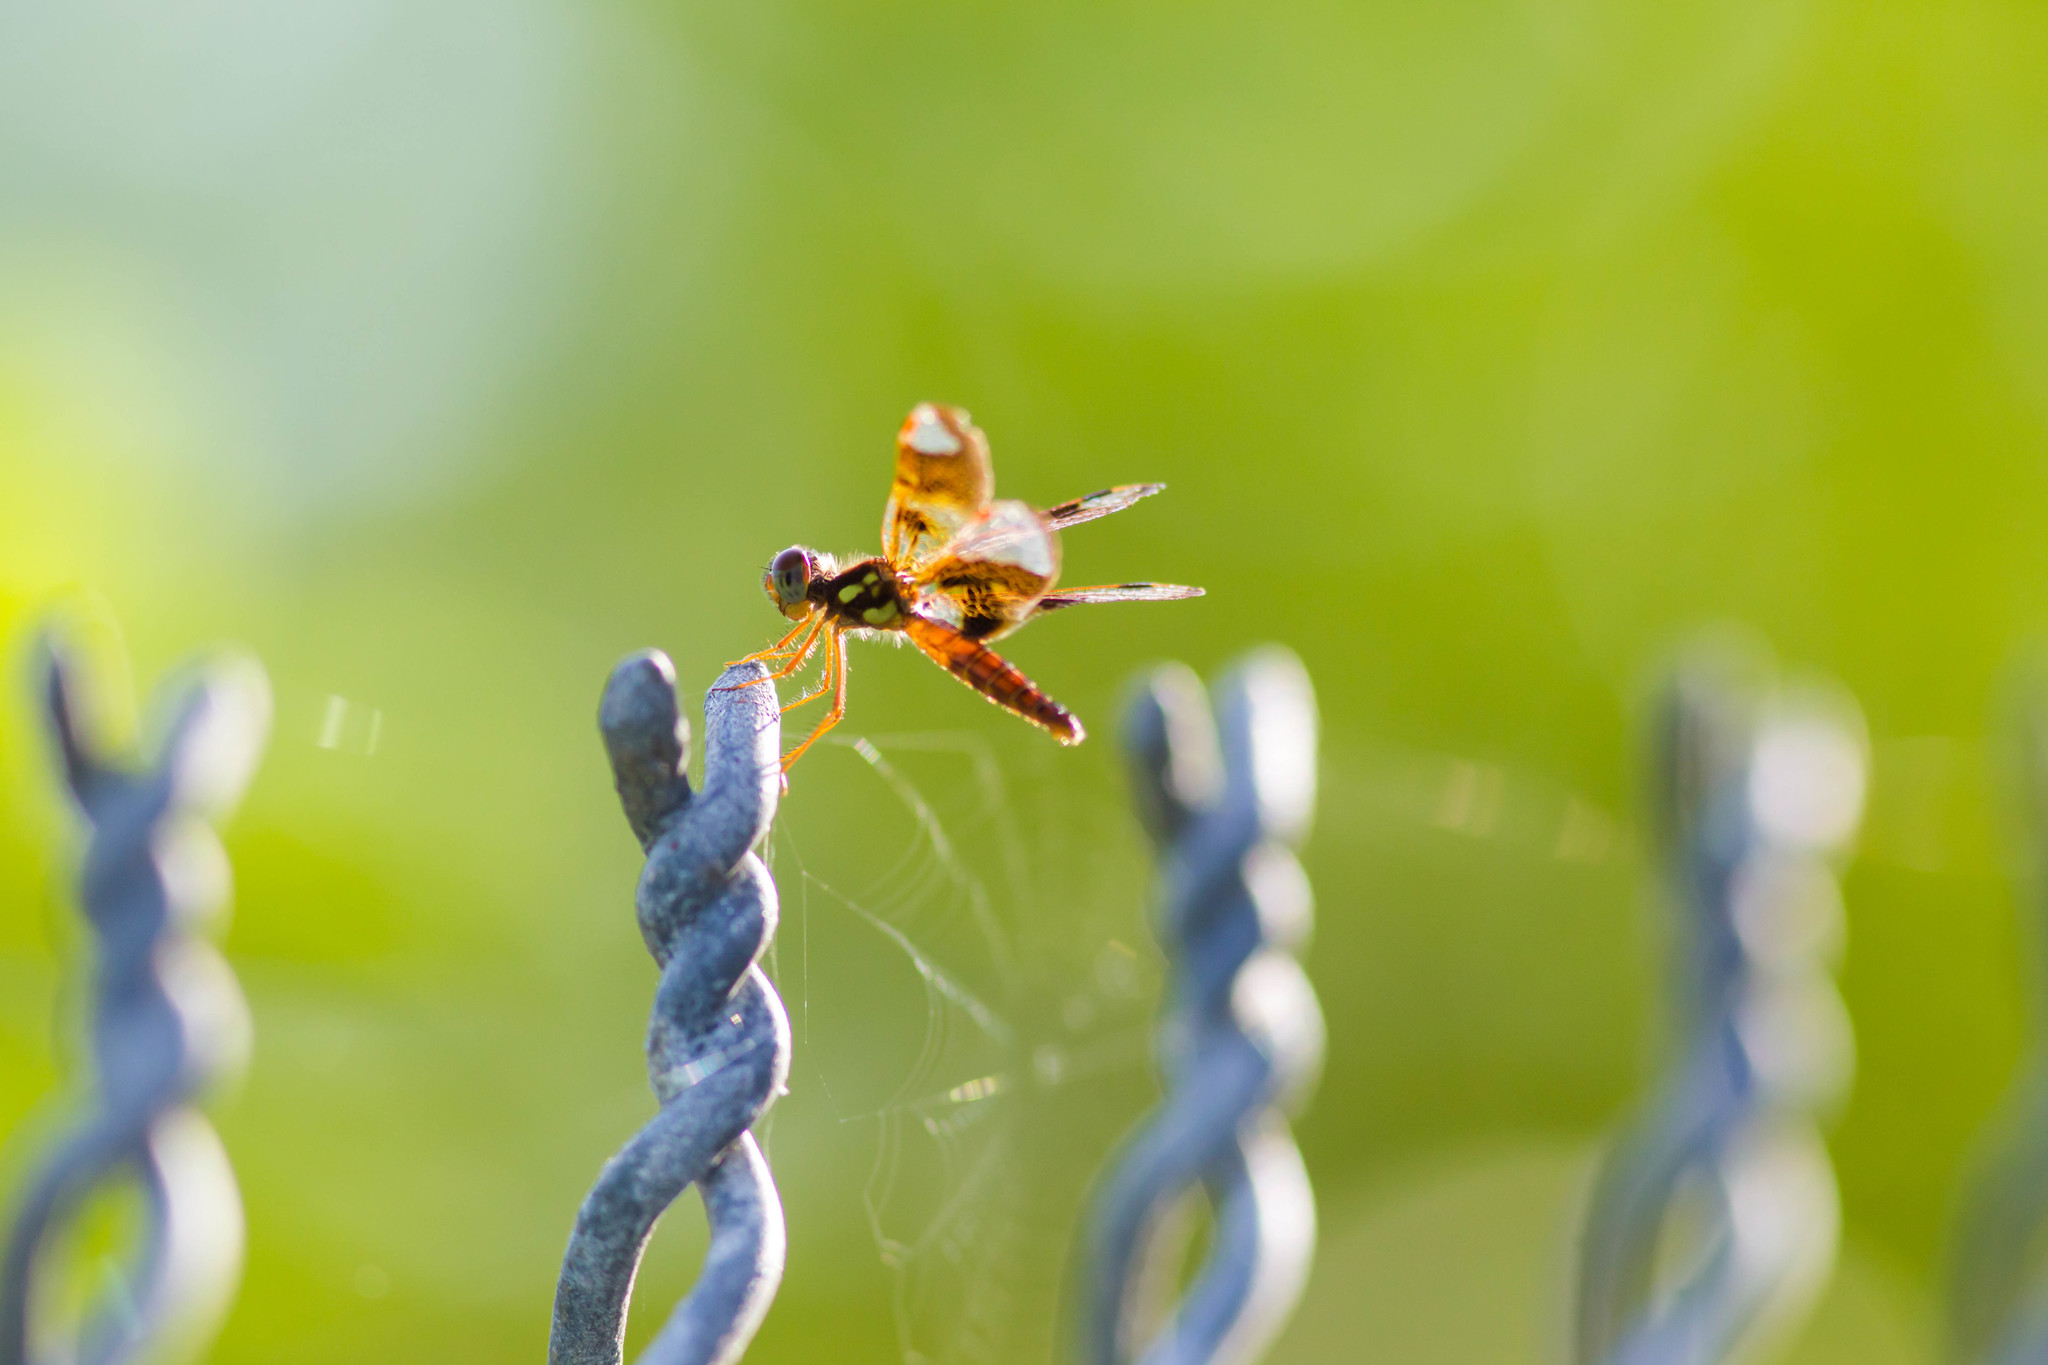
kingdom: Animalia
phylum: Arthropoda
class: Insecta
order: Odonata
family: Libellulidae
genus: Perithemis
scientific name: Perithemis tenera
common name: Eastern amberwing
